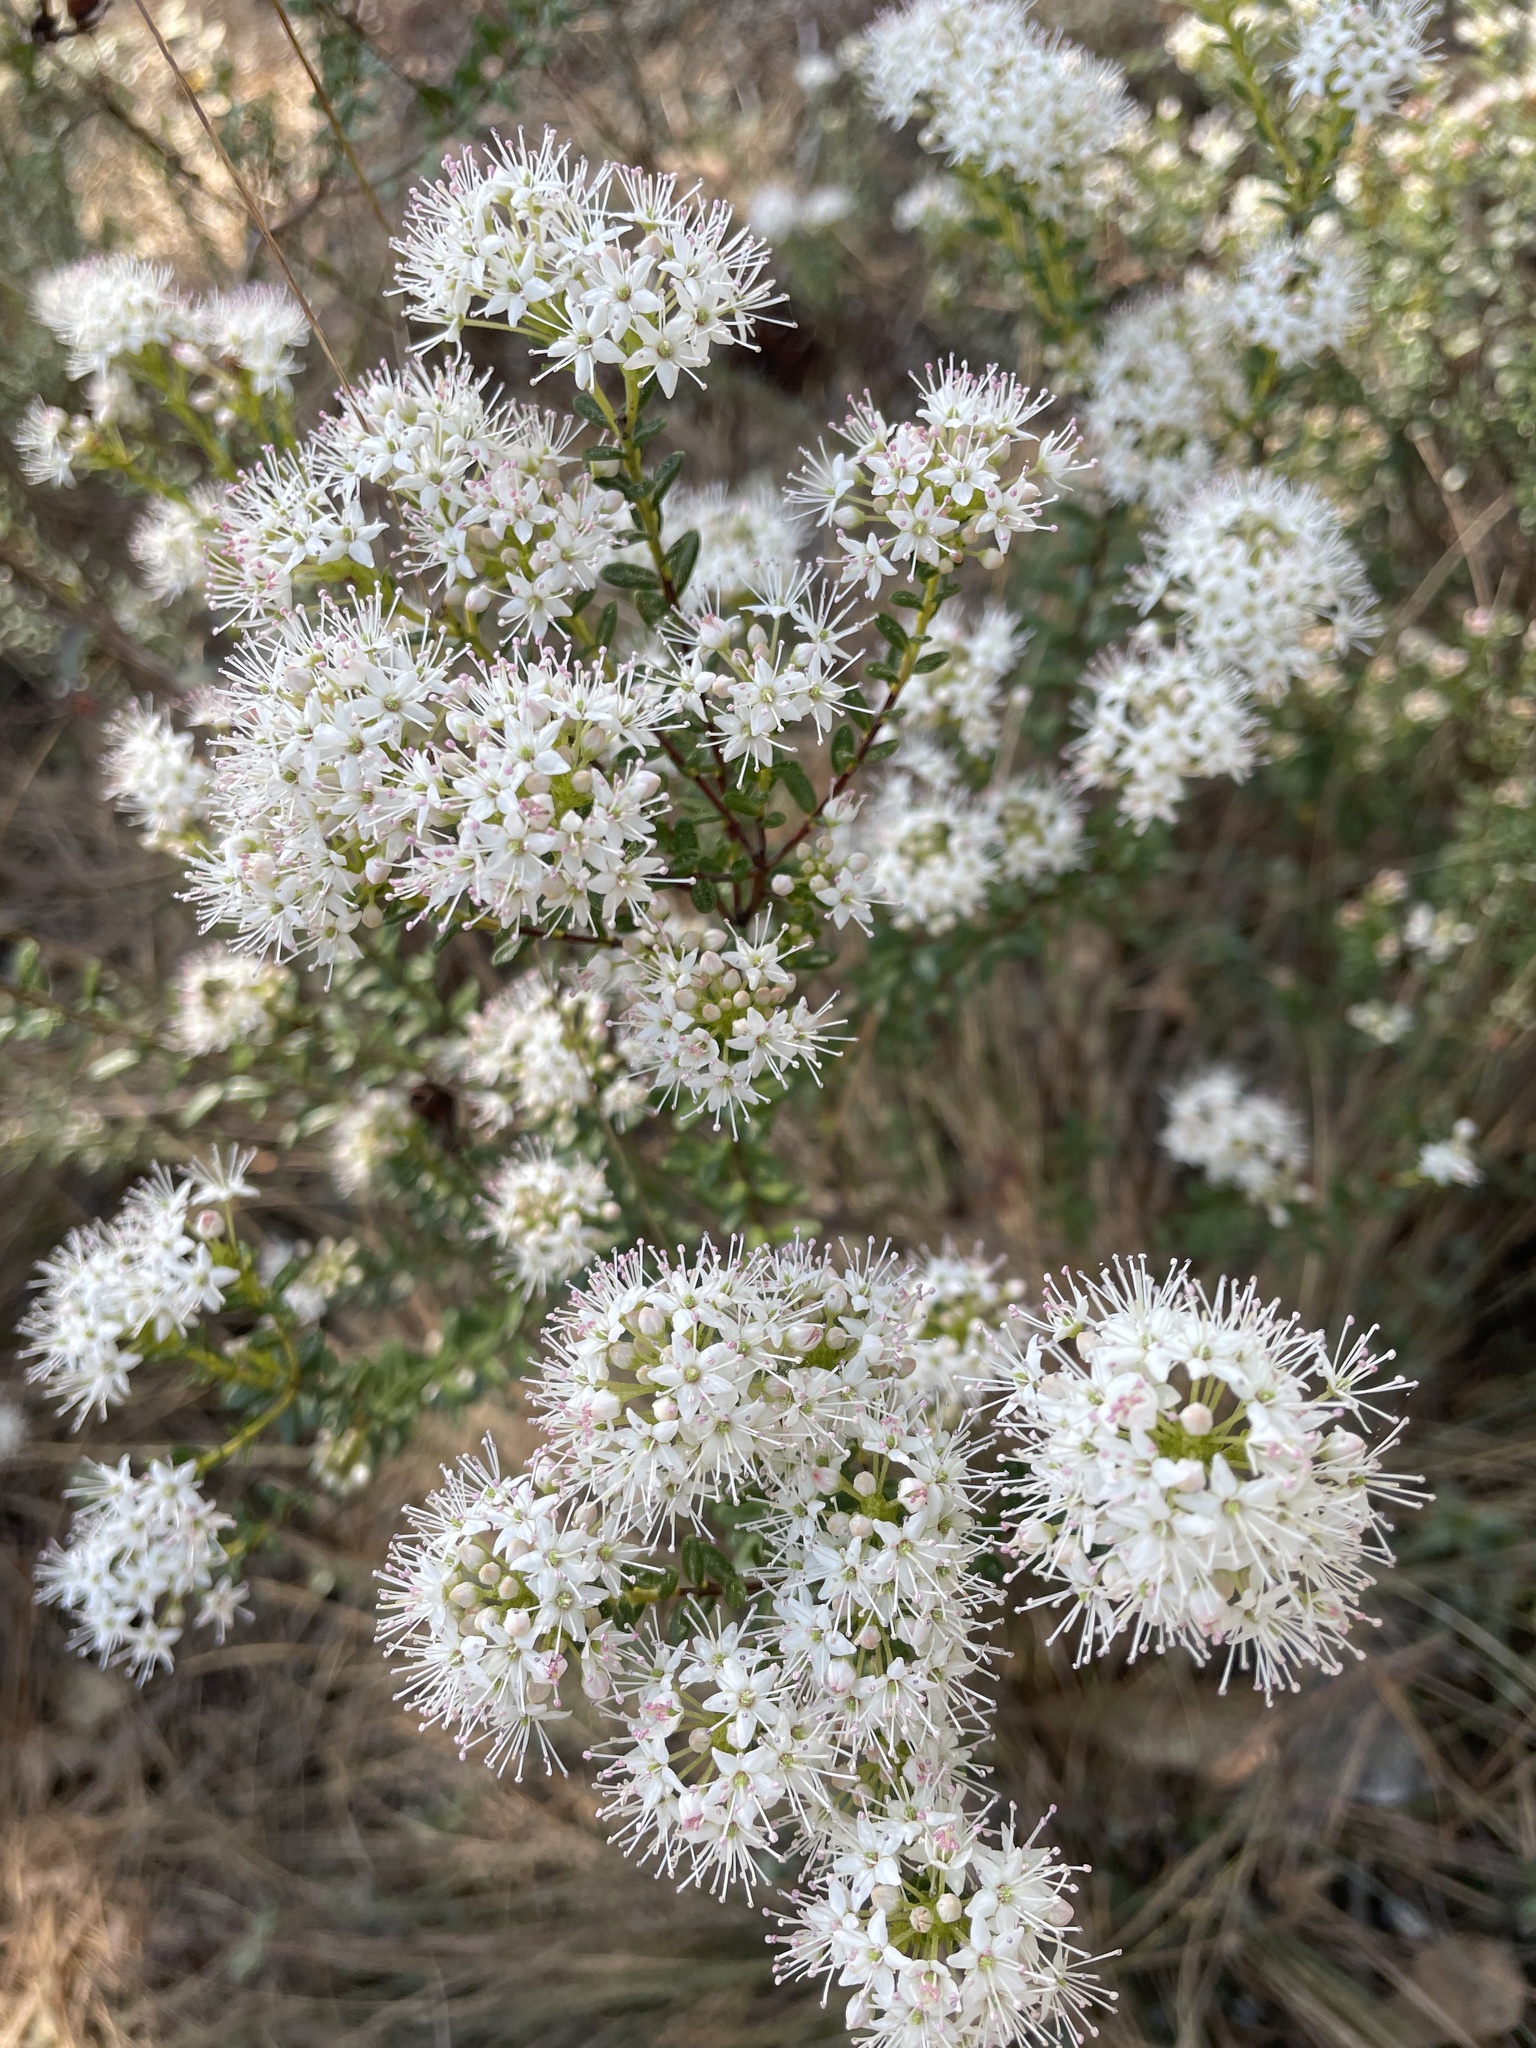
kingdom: Plantae
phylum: Tracheophyta
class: Magnoliopsida
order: Ericales
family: Ericaceae
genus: Kalmia
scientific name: Kalmia buxifolia
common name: Sandmyrtle
